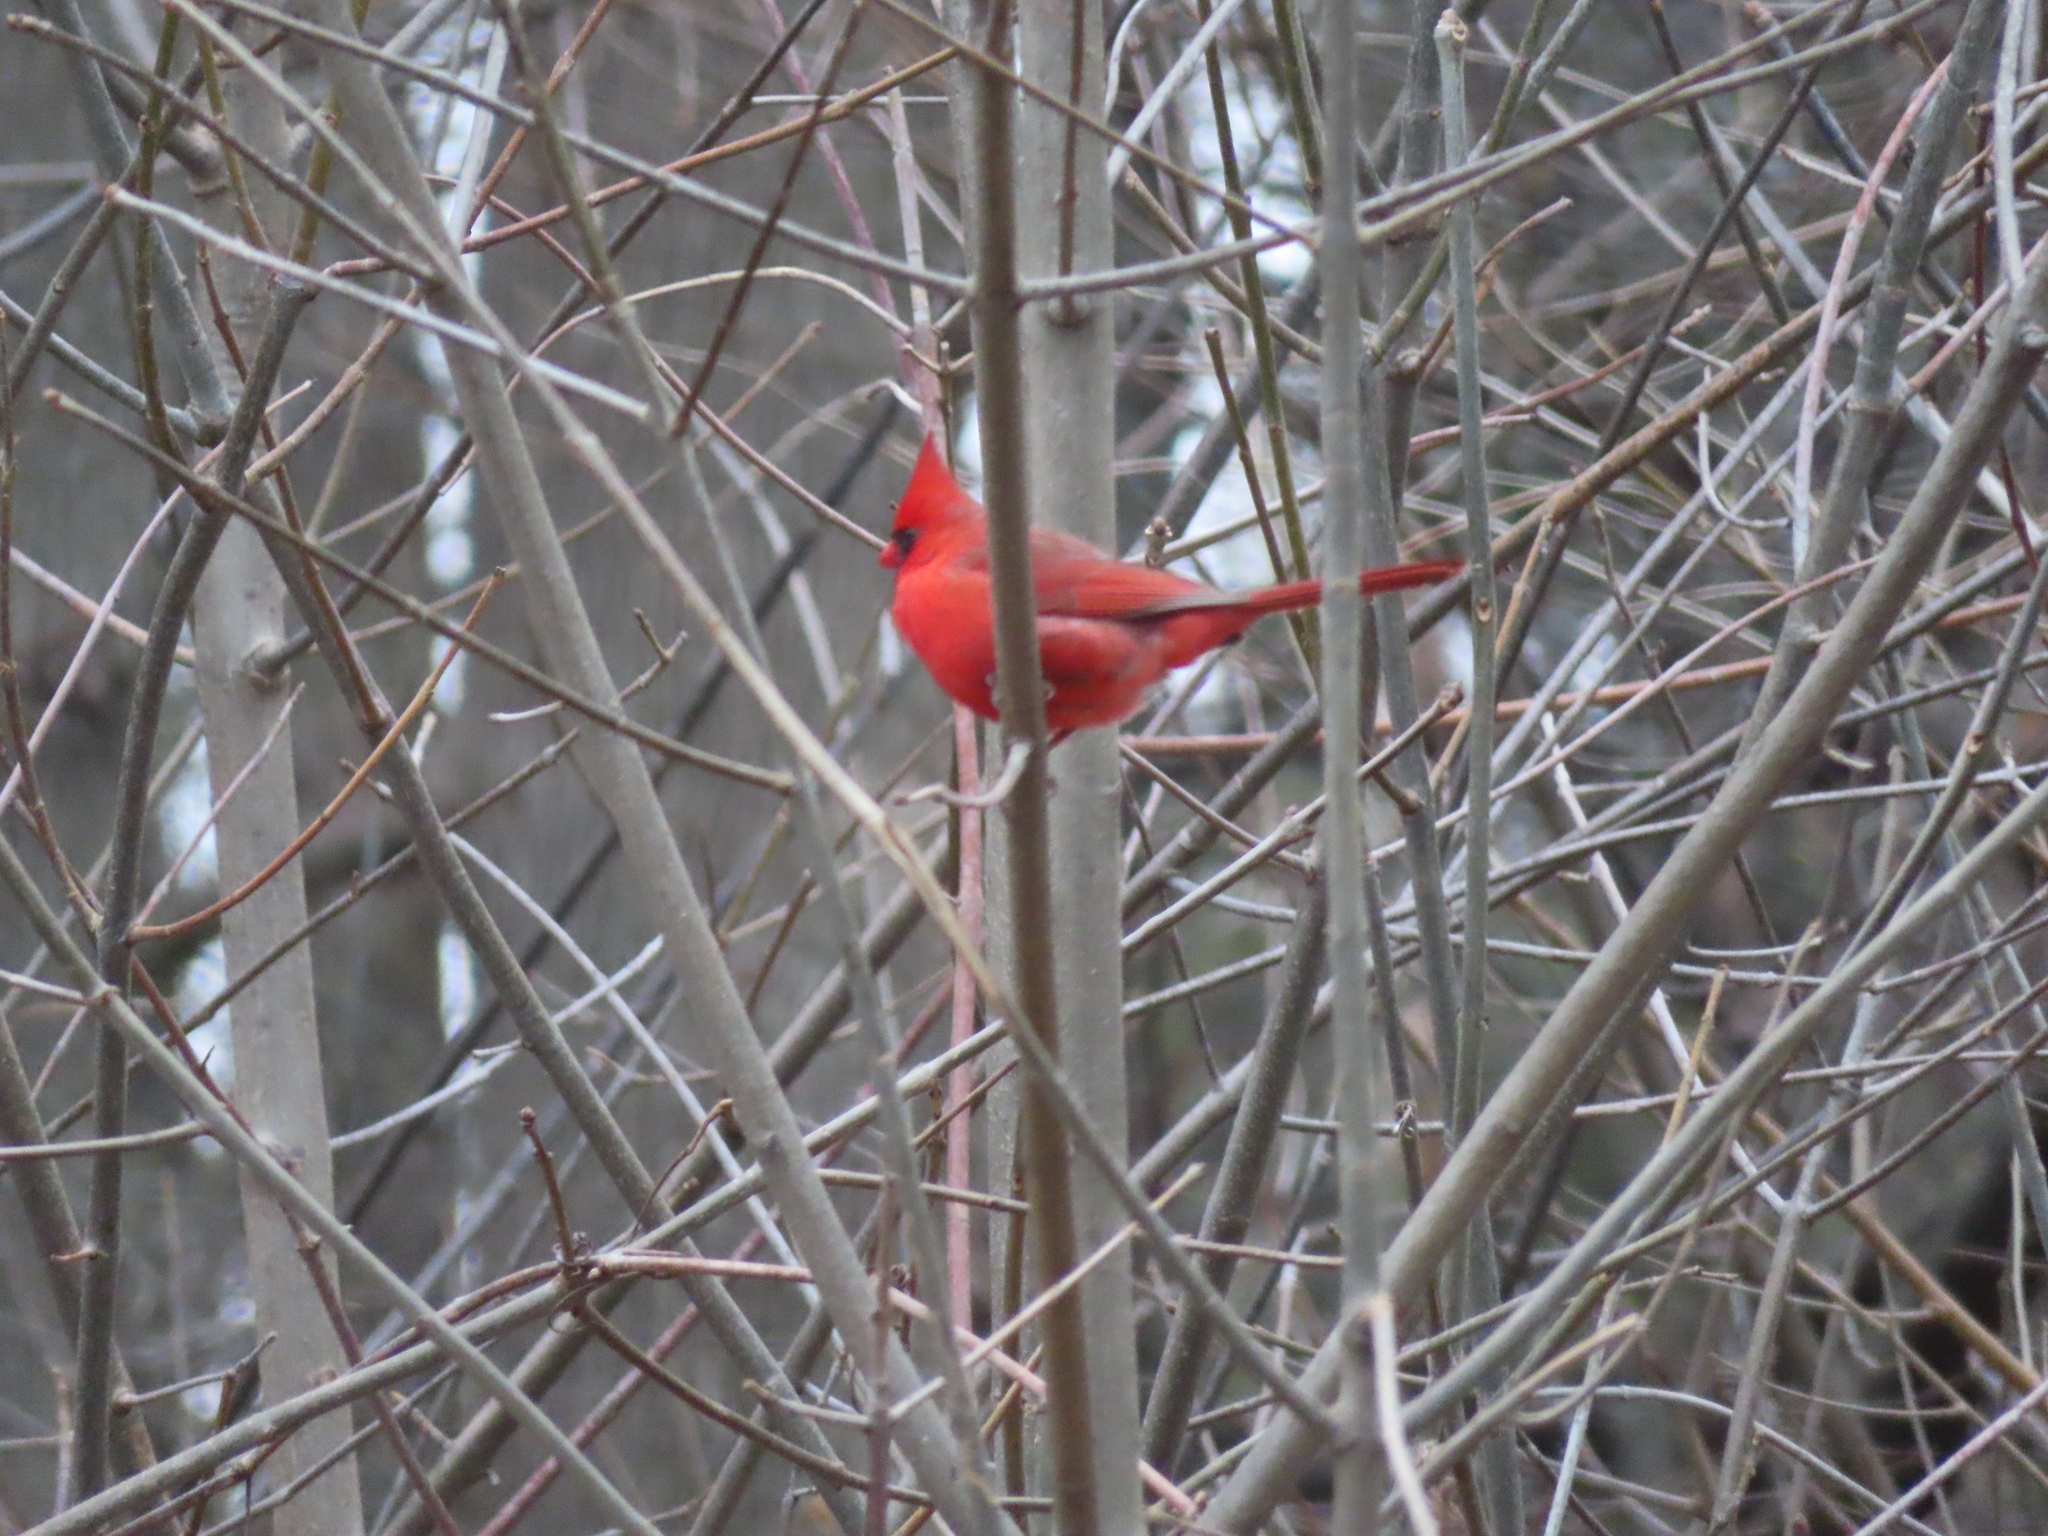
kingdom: Animalia
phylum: Chordata
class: Aves
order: Passeriformes
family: Cardinalidae
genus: Cardinalis
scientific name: Cardinalis cardinalis
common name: Northern cardinal
